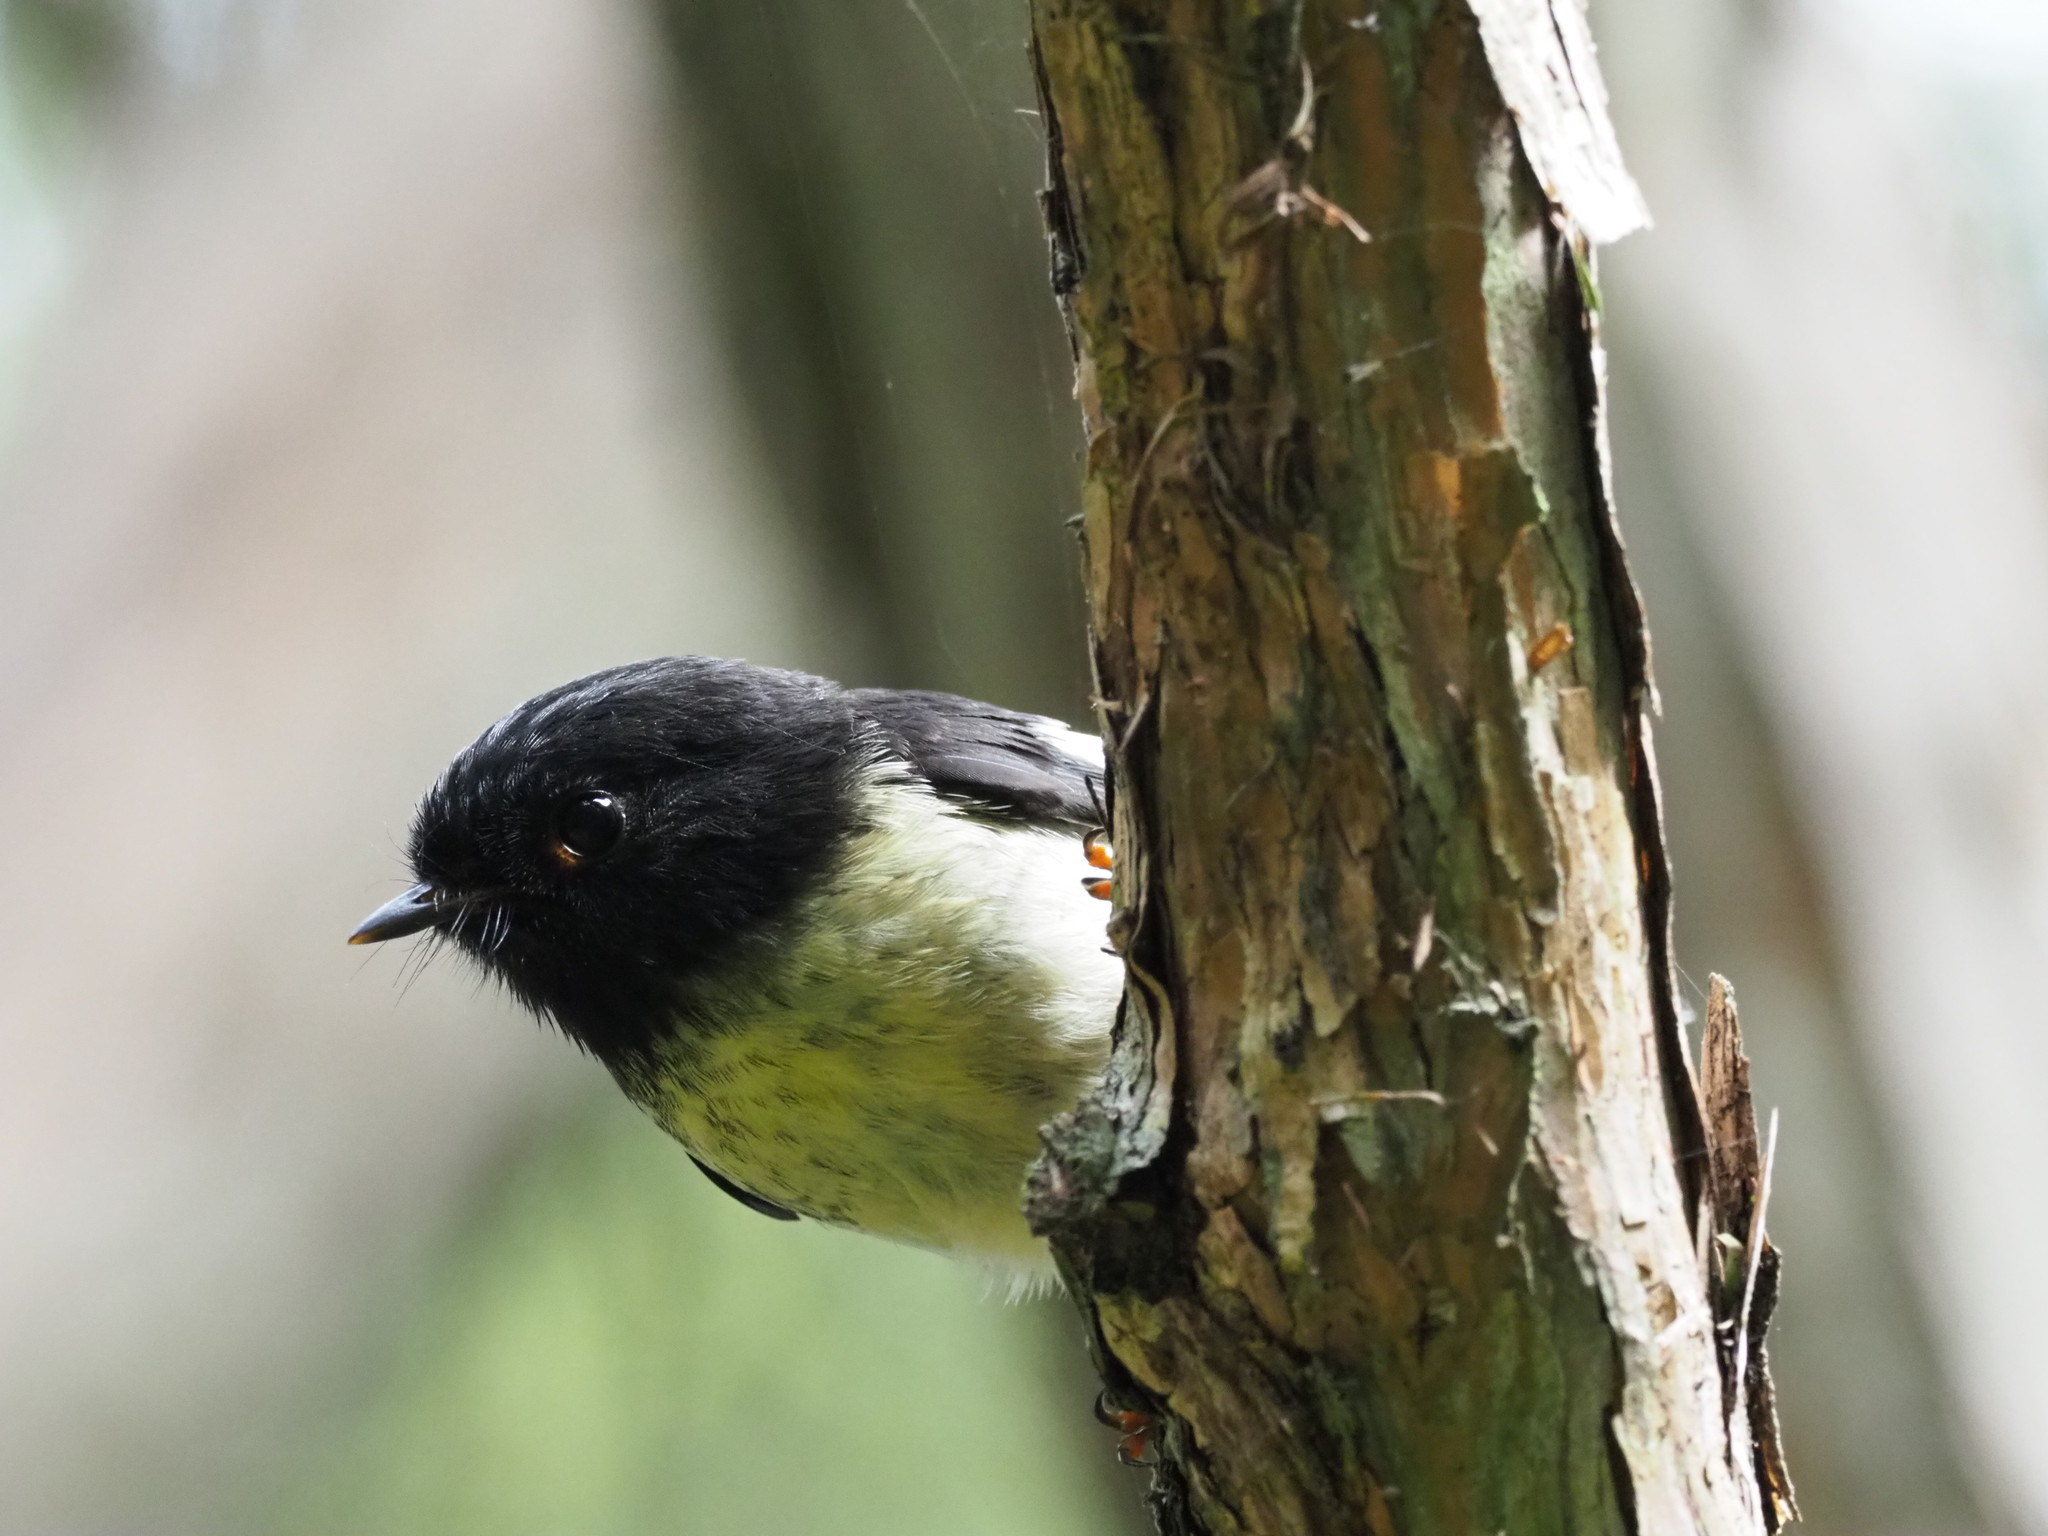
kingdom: Animalia
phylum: Chordata
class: Aves
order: Passeriformes
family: Petroicidae
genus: Petroica
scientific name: Petroica macrocephala
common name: Tomtit
